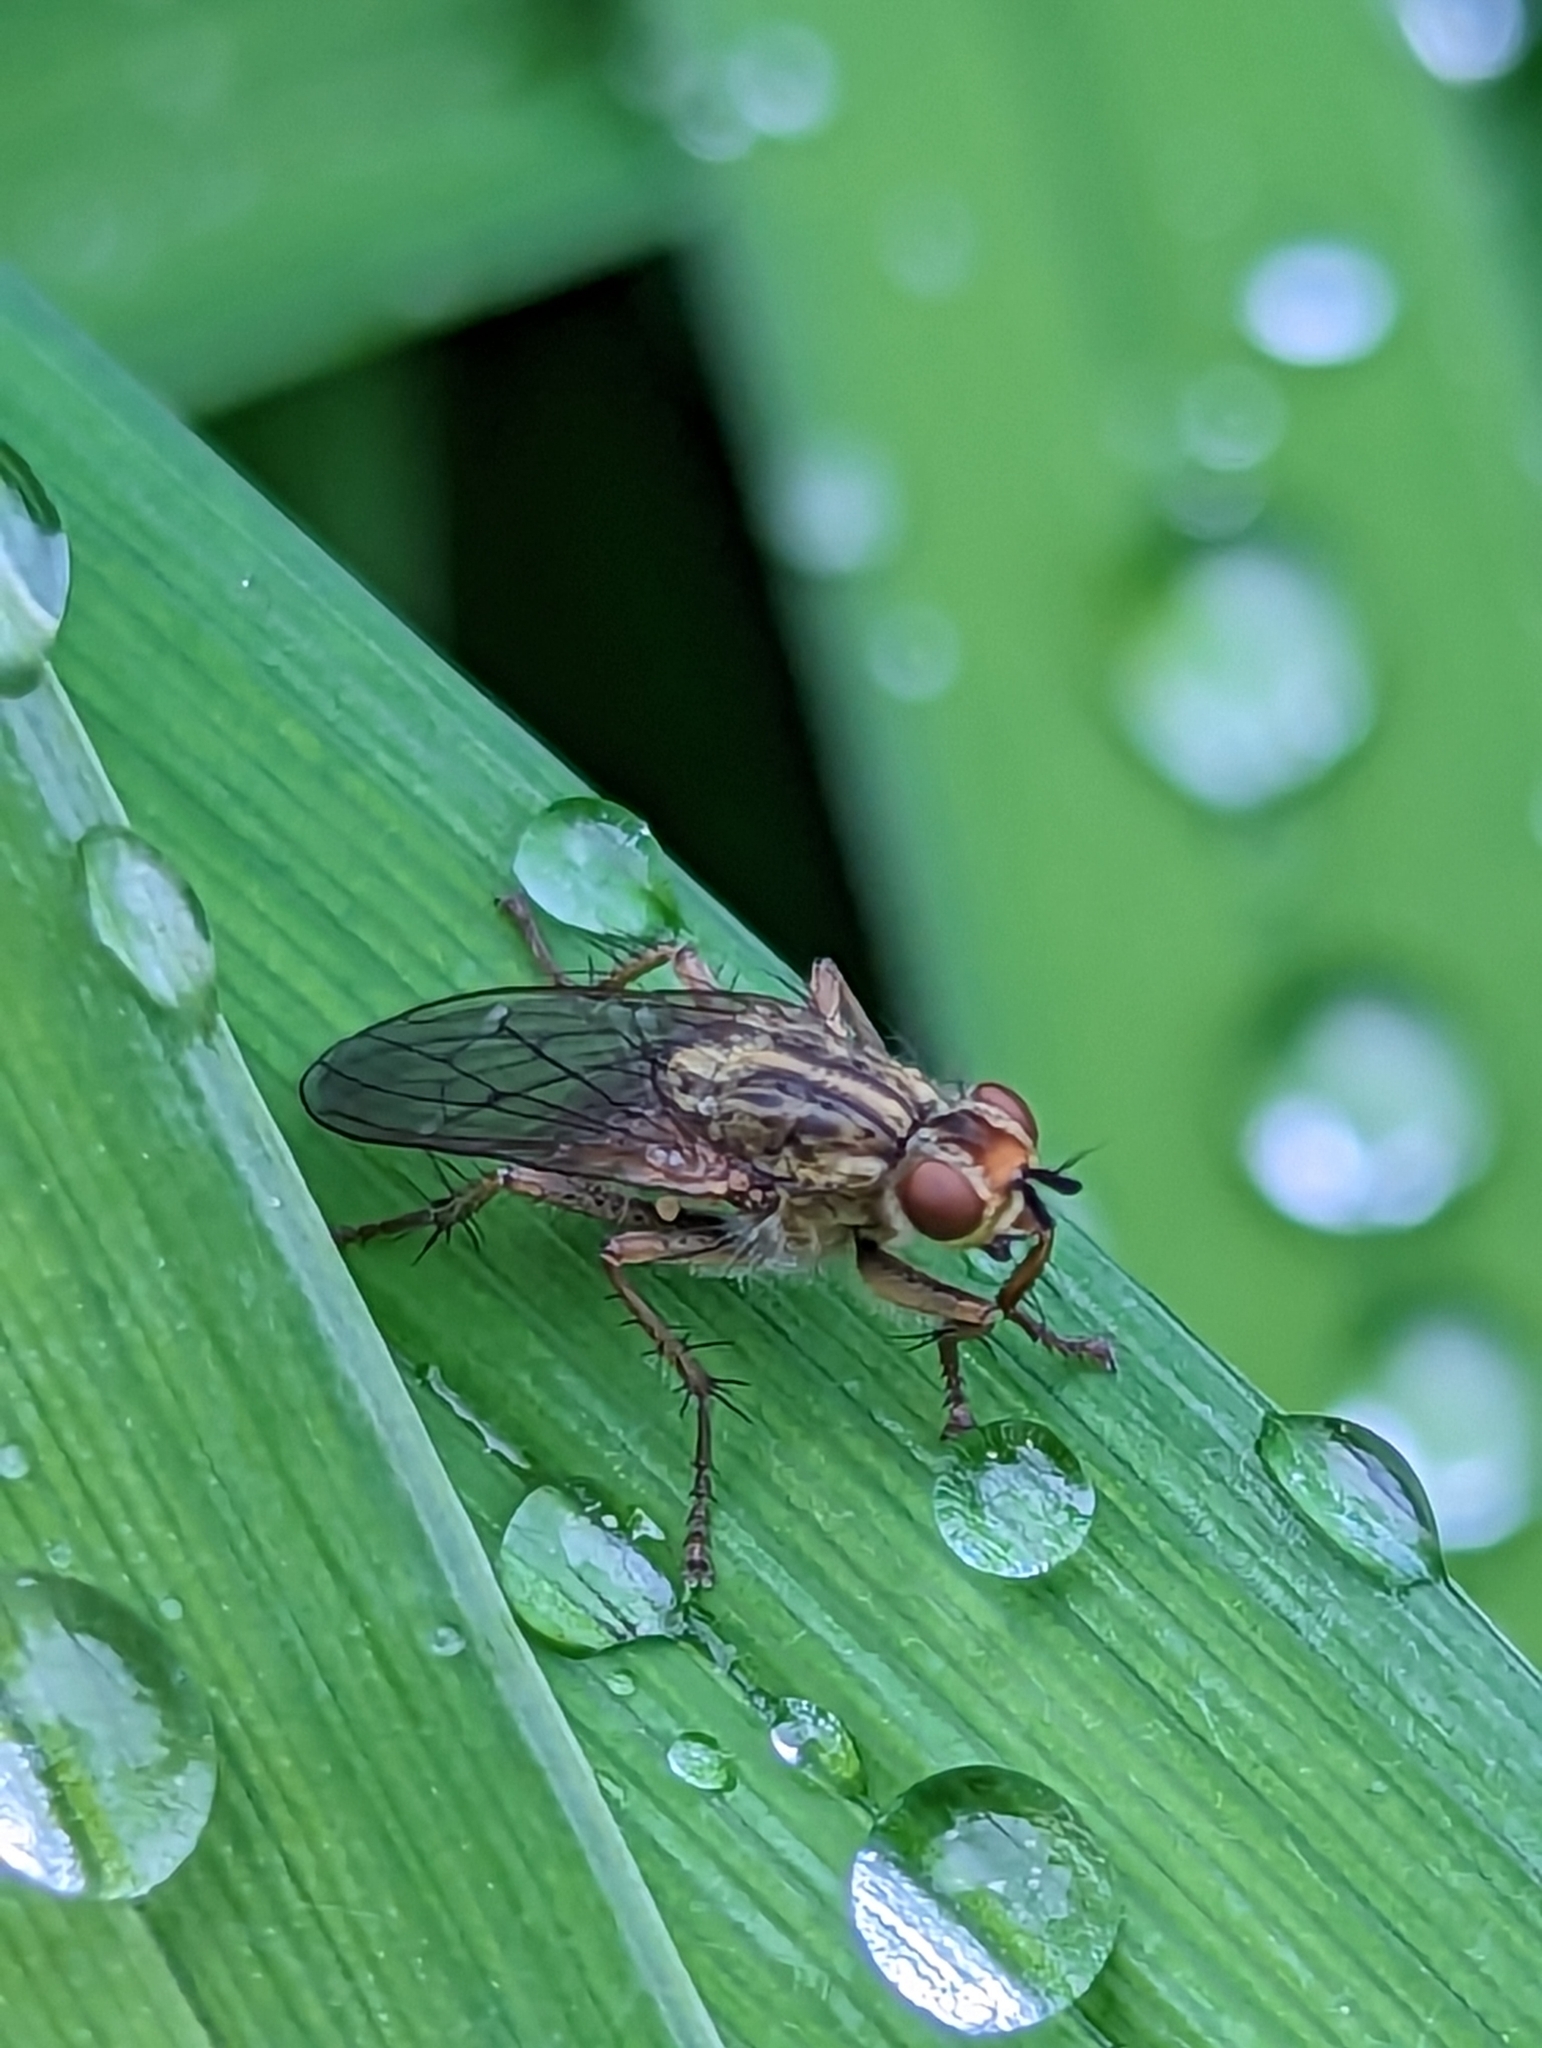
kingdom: Animalia
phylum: Arthropoda
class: Insecta
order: Diptera
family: Scathophagidae
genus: Scathophaga
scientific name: Scathophaga stercoraria
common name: Yellow dung fly
